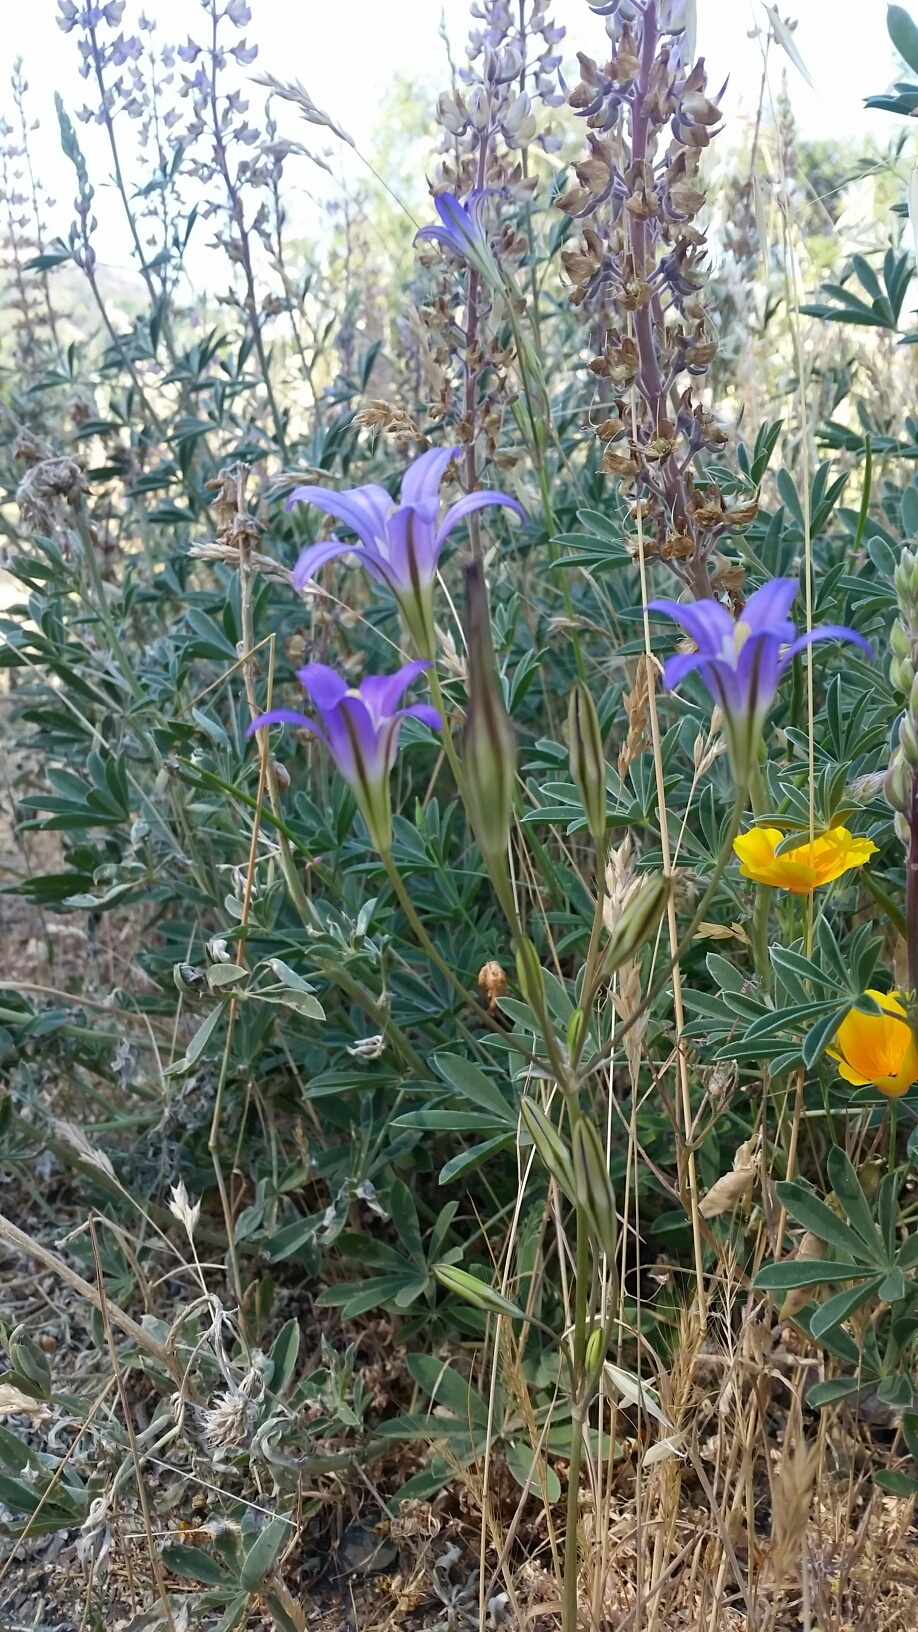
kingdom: Plantae
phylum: Tracheophyta
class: Liliopsida
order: Asparagales
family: Asparagaceae
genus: Brodiaea
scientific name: Brodiaea elegans
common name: Elegant cluster-lily
